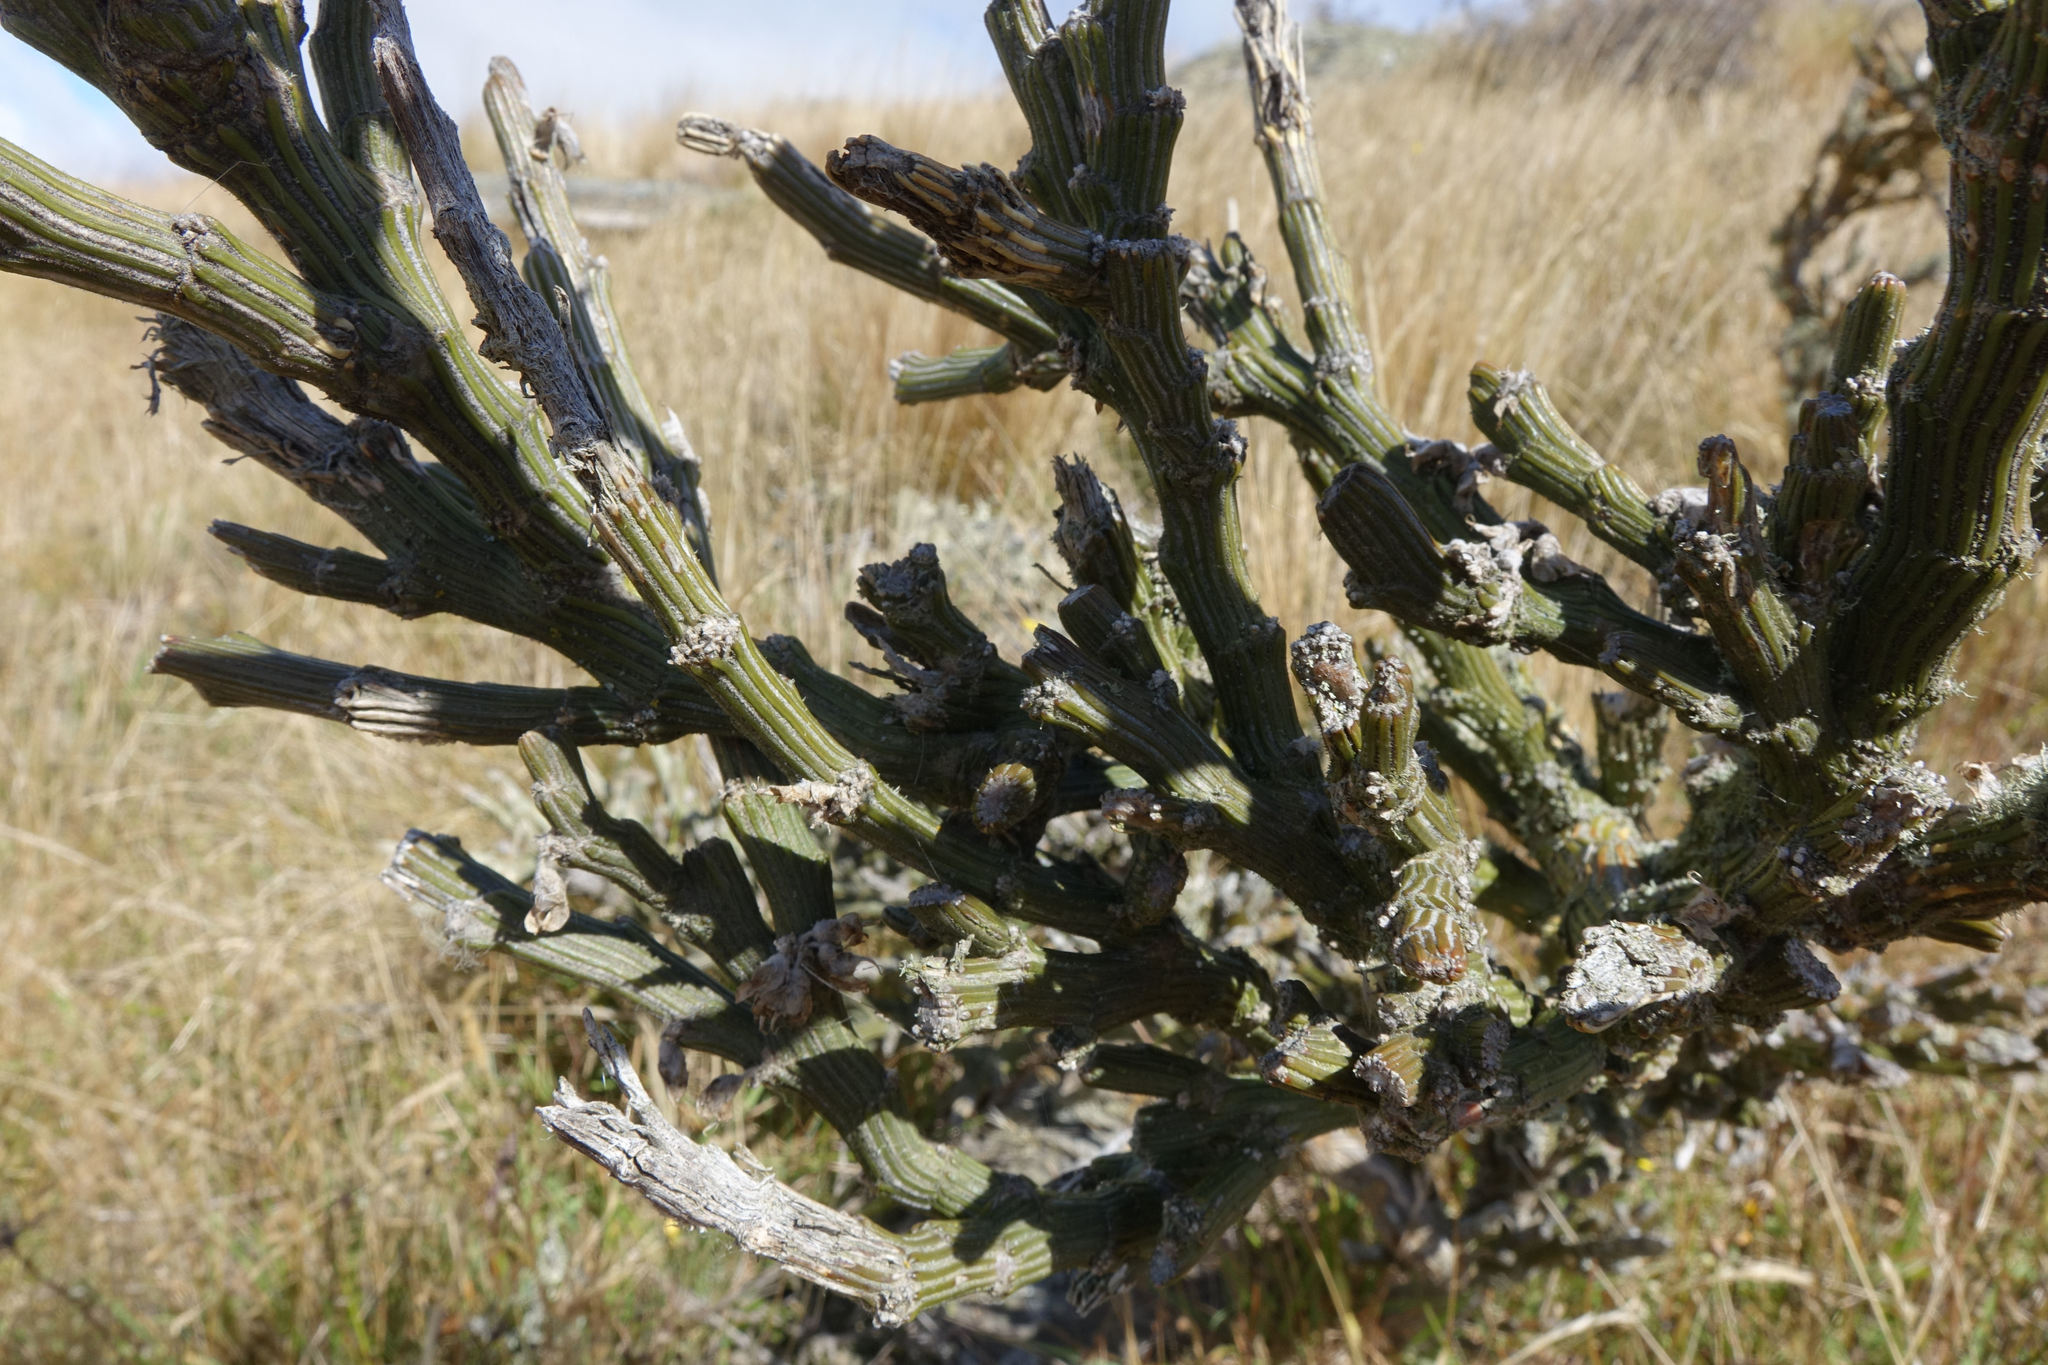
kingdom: Plantae
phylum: Tracheophyta
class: Magnoliopsida
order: Fabales
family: Fabaceae
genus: Carmichaelia
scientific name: Carmichaelia crassicaulis
